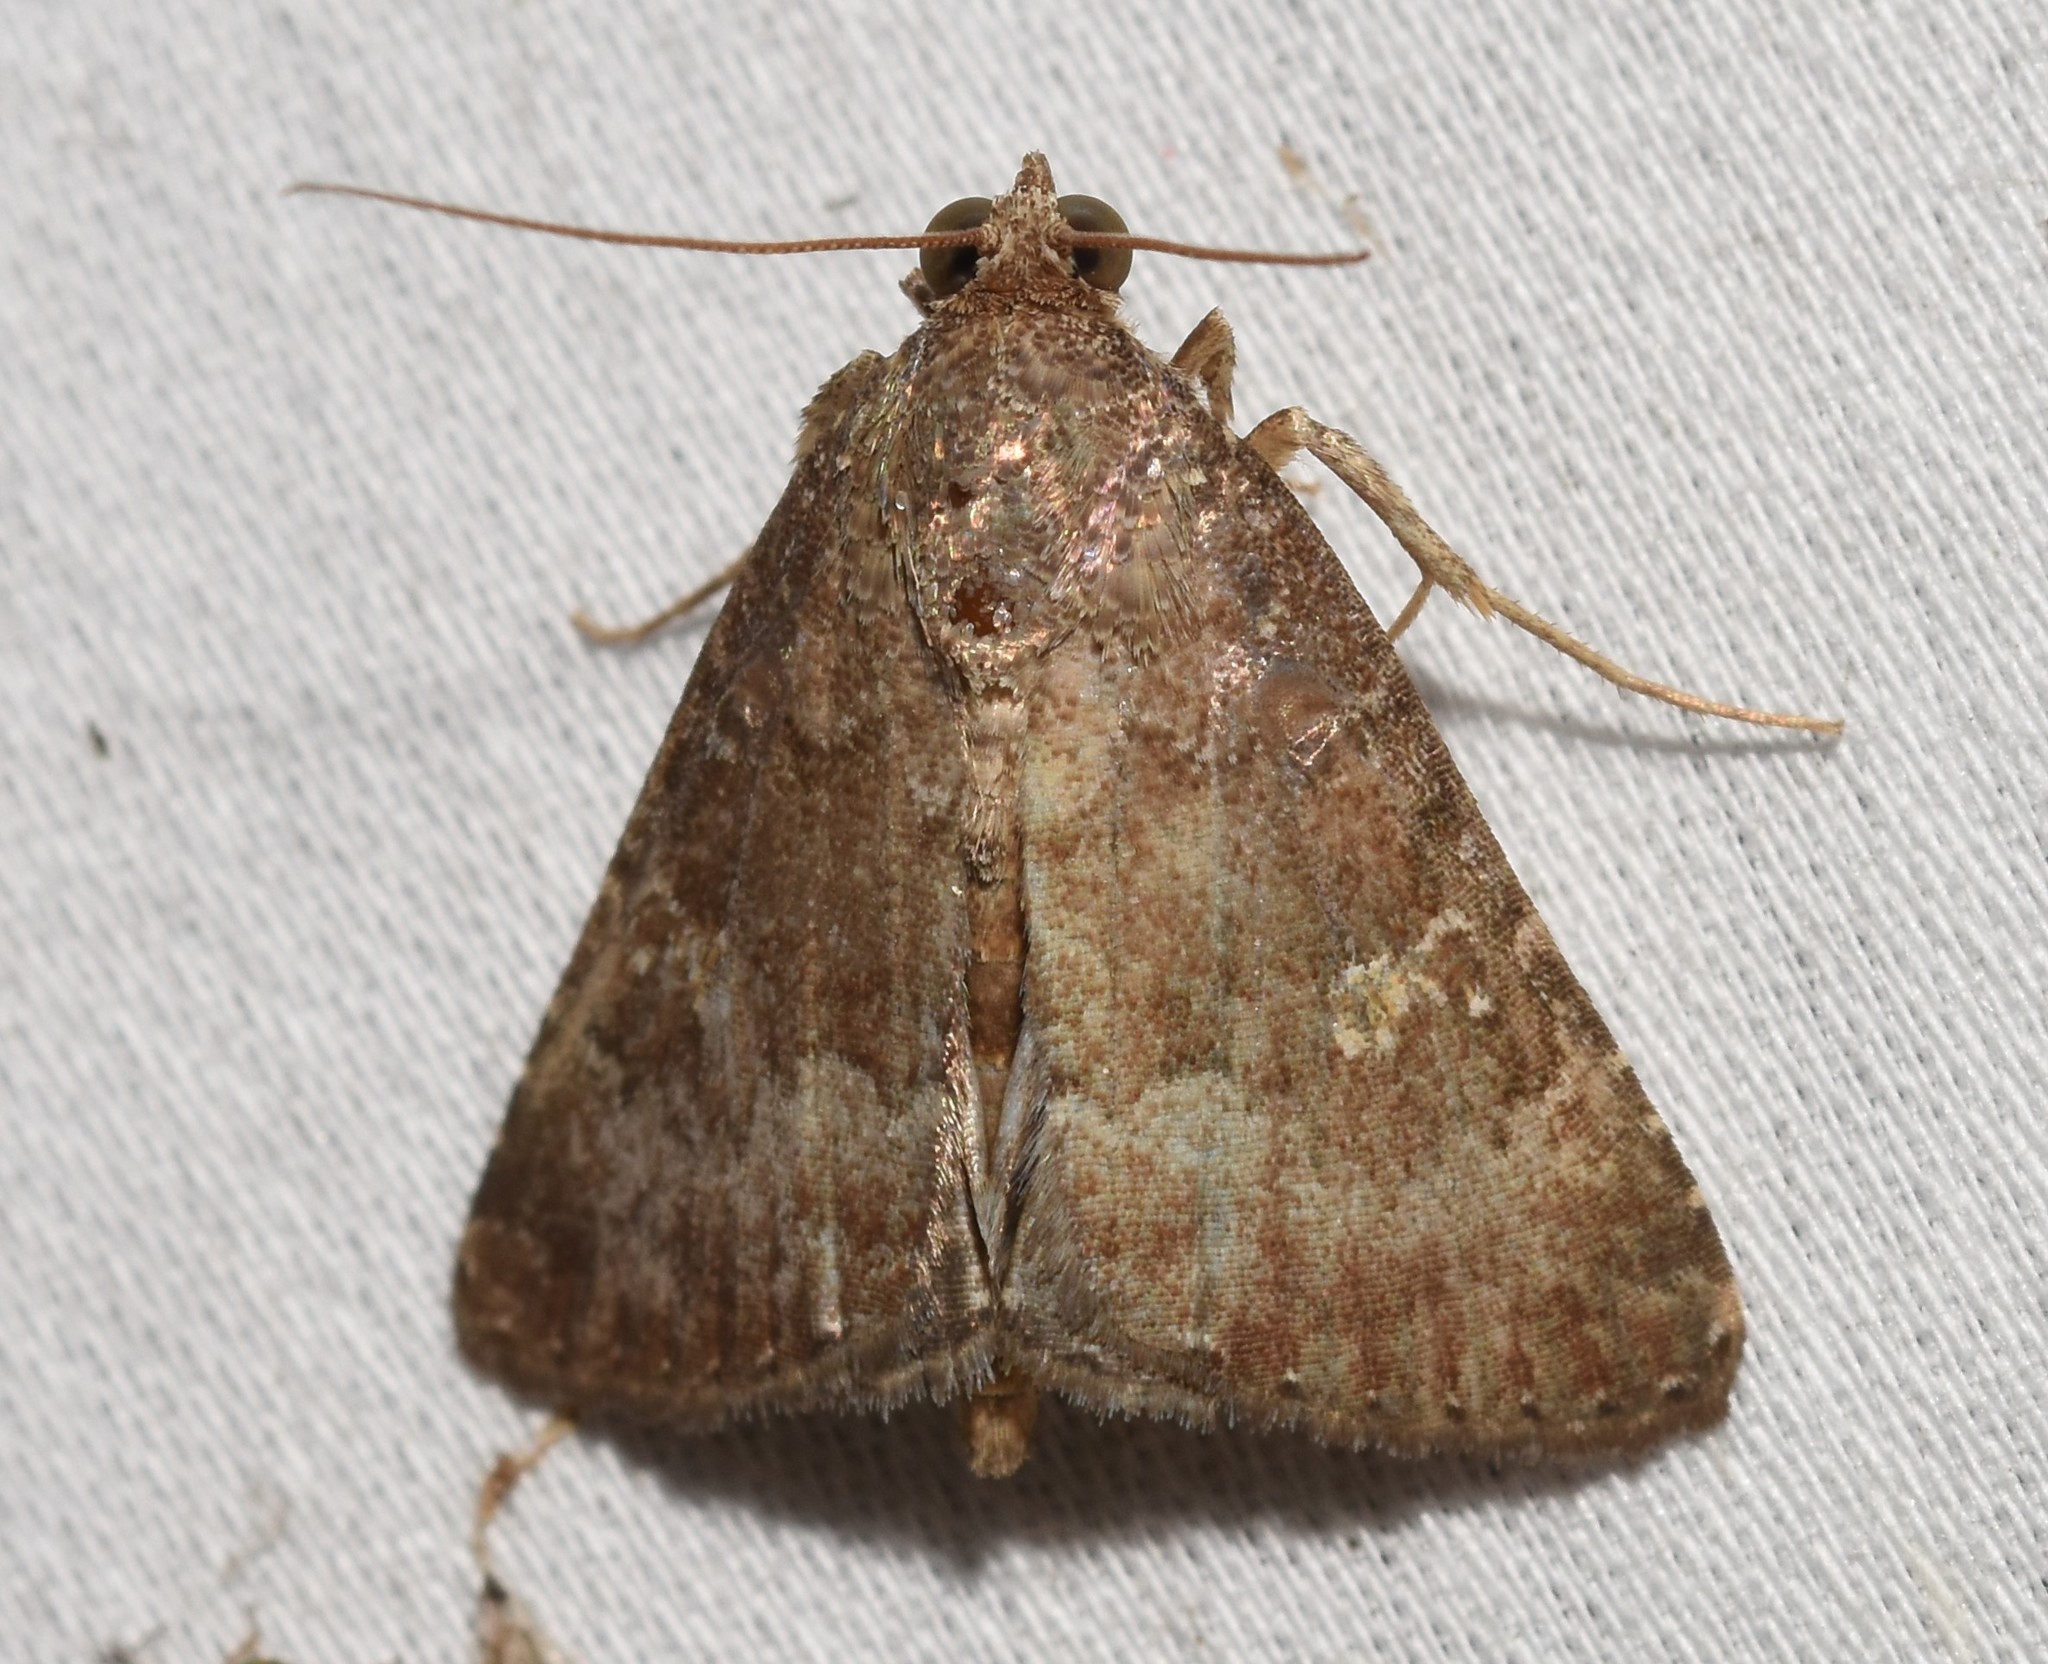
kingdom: Animalia
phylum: Arthropoda
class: Insecta
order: Lepidoptera
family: Noctuidae
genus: Amyna
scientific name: Amyna stricta
